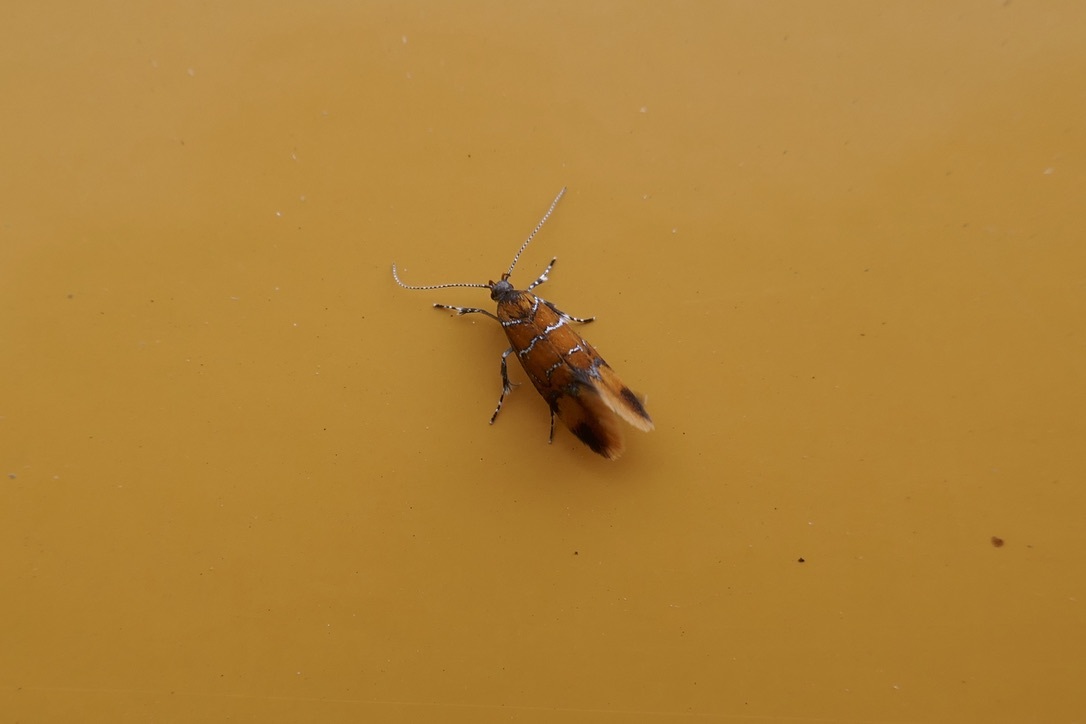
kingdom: Animalia
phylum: Arthropoda
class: Insecta
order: Lepidoptera
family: Oecophoridae
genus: Schiffermuelleria
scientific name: Schiffermuelleria procerella
